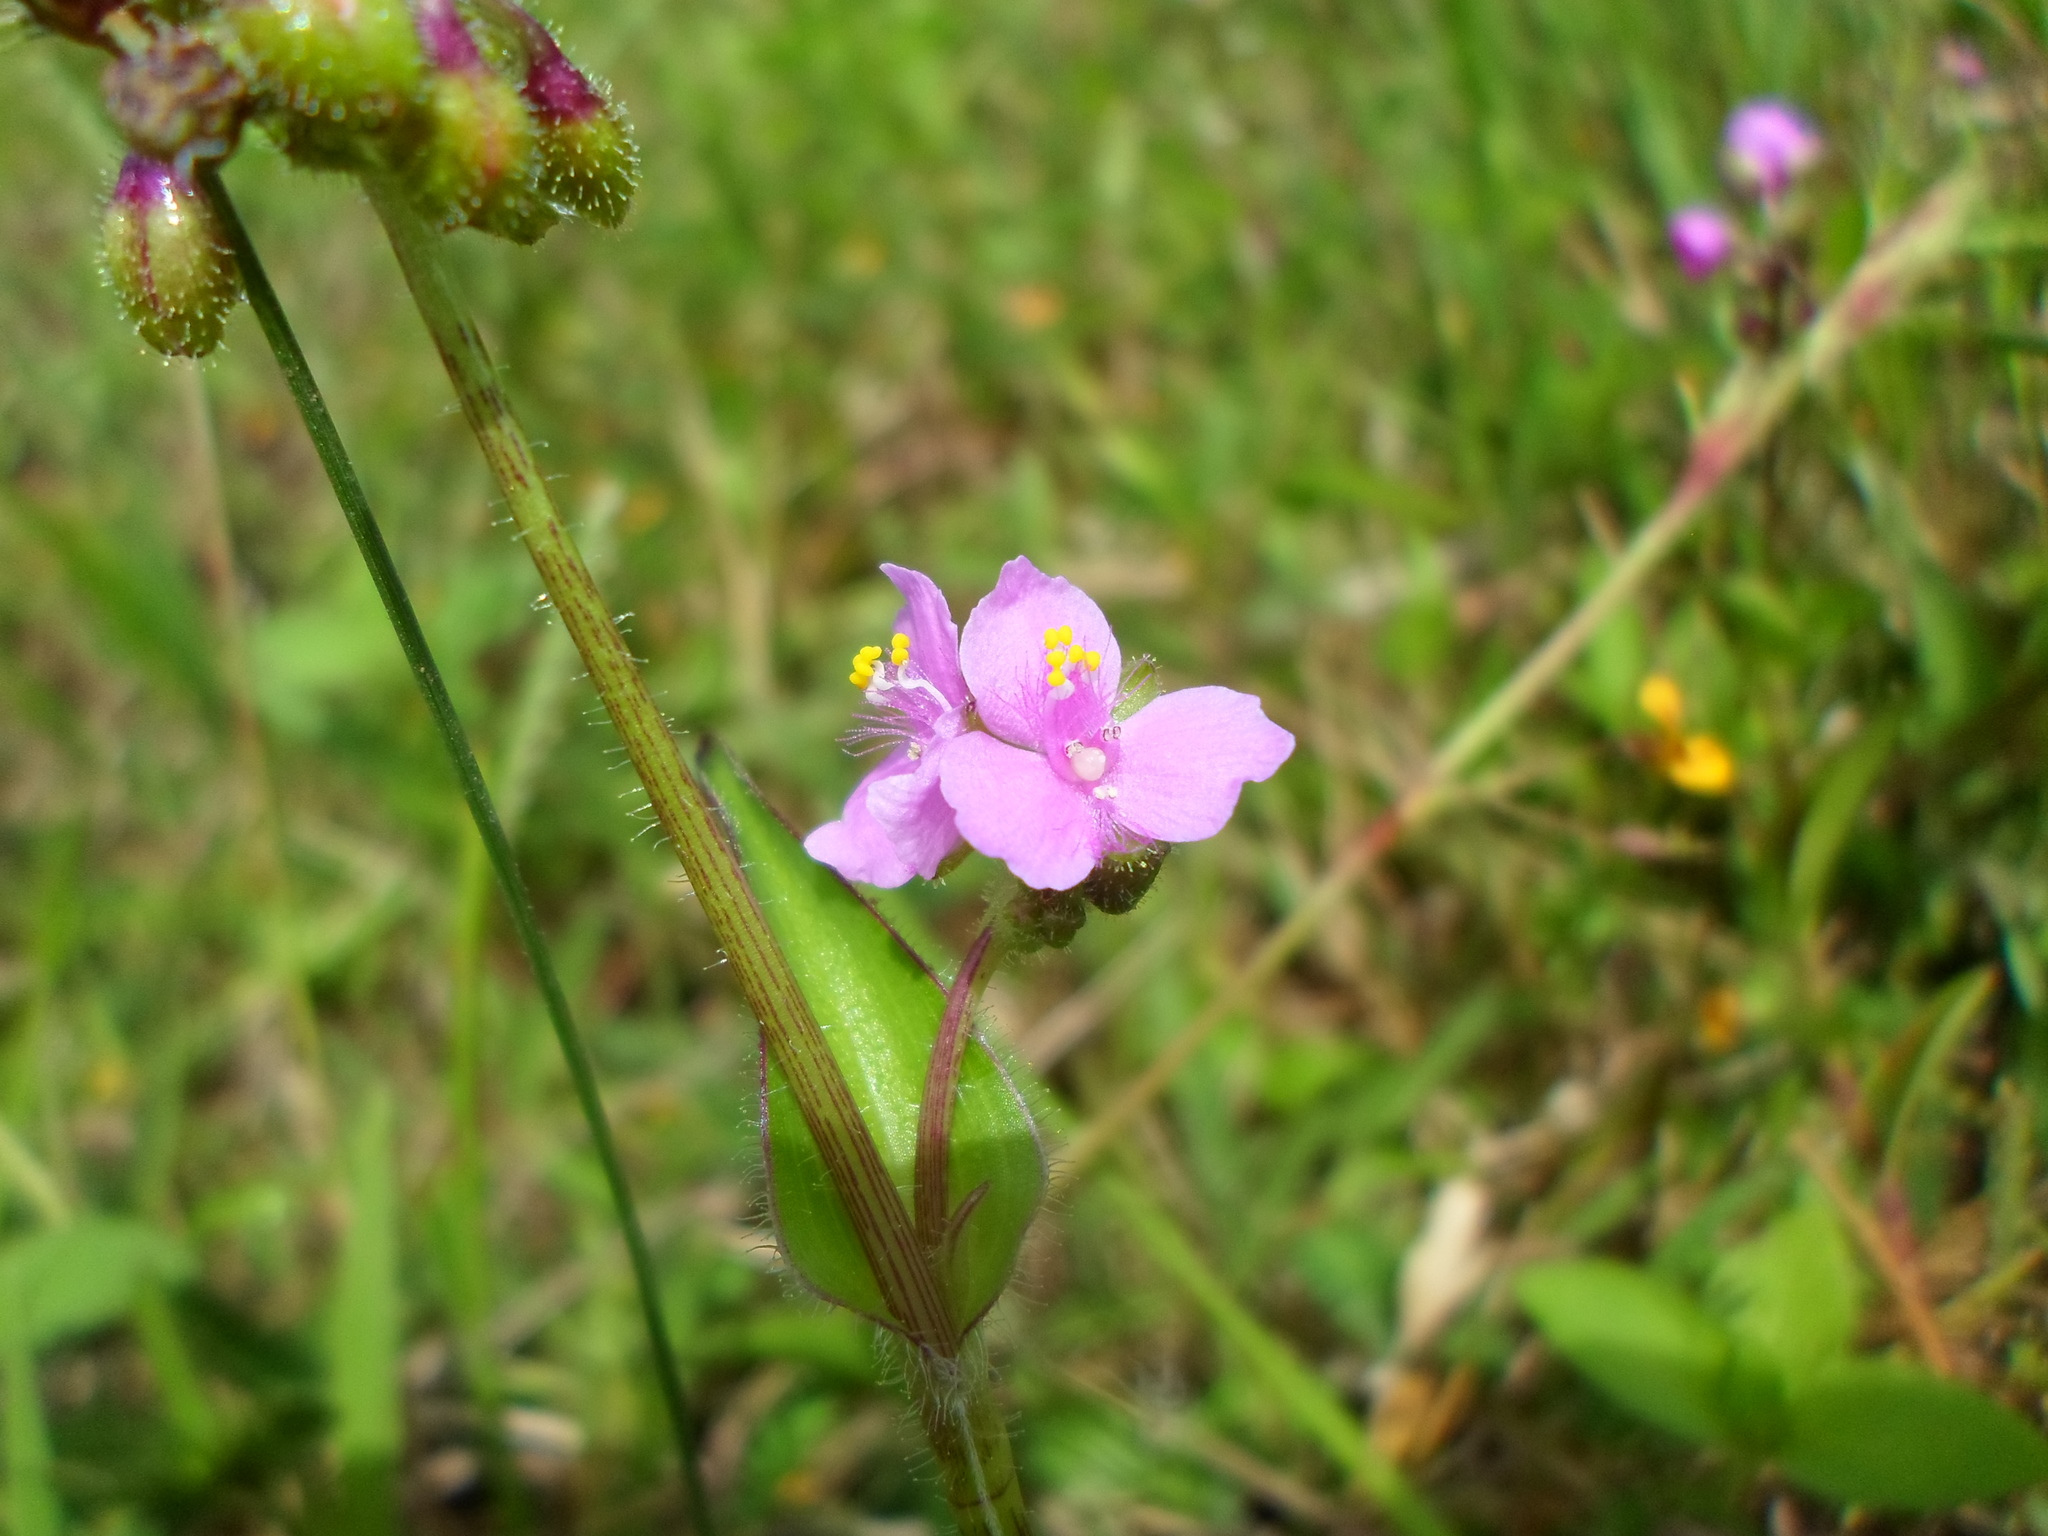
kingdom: Plantae
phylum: Tracheophyta
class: Liliopsida
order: Commelinales
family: Commelinaceae
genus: Callisia
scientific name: Callisia purpurascens
